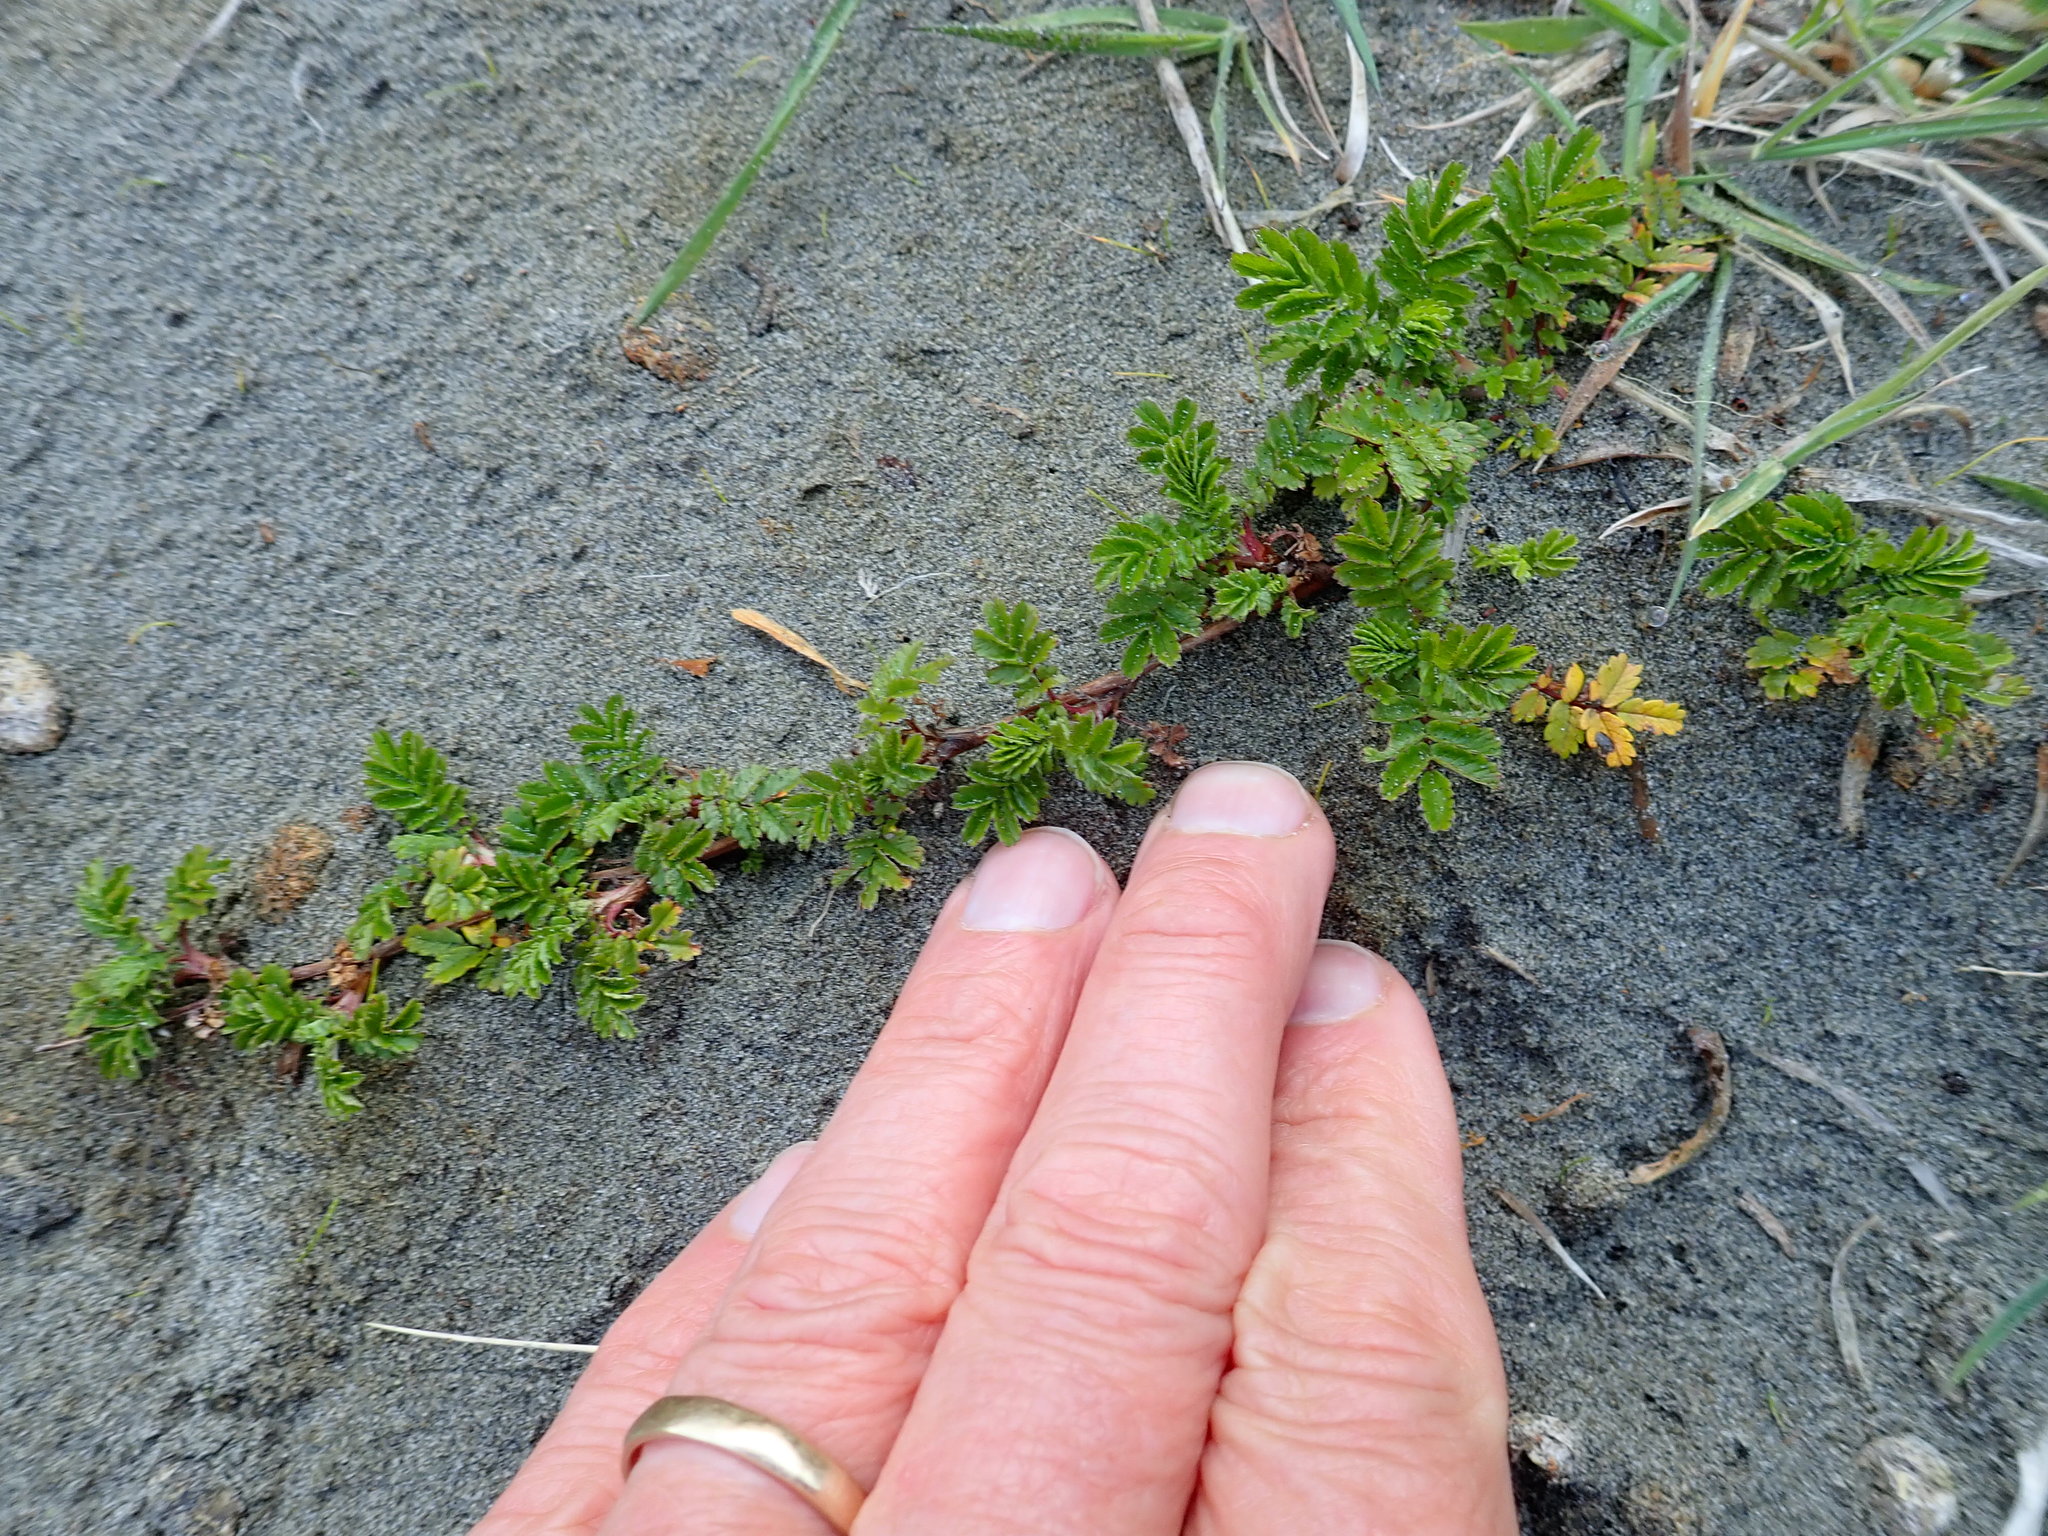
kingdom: Plantae
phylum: Tracheophyta
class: Magnoliopsida
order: Rosales
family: Rosaceae
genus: Acaena
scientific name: Acaena novae-zelandiae
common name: Pirri-pirri-bur
